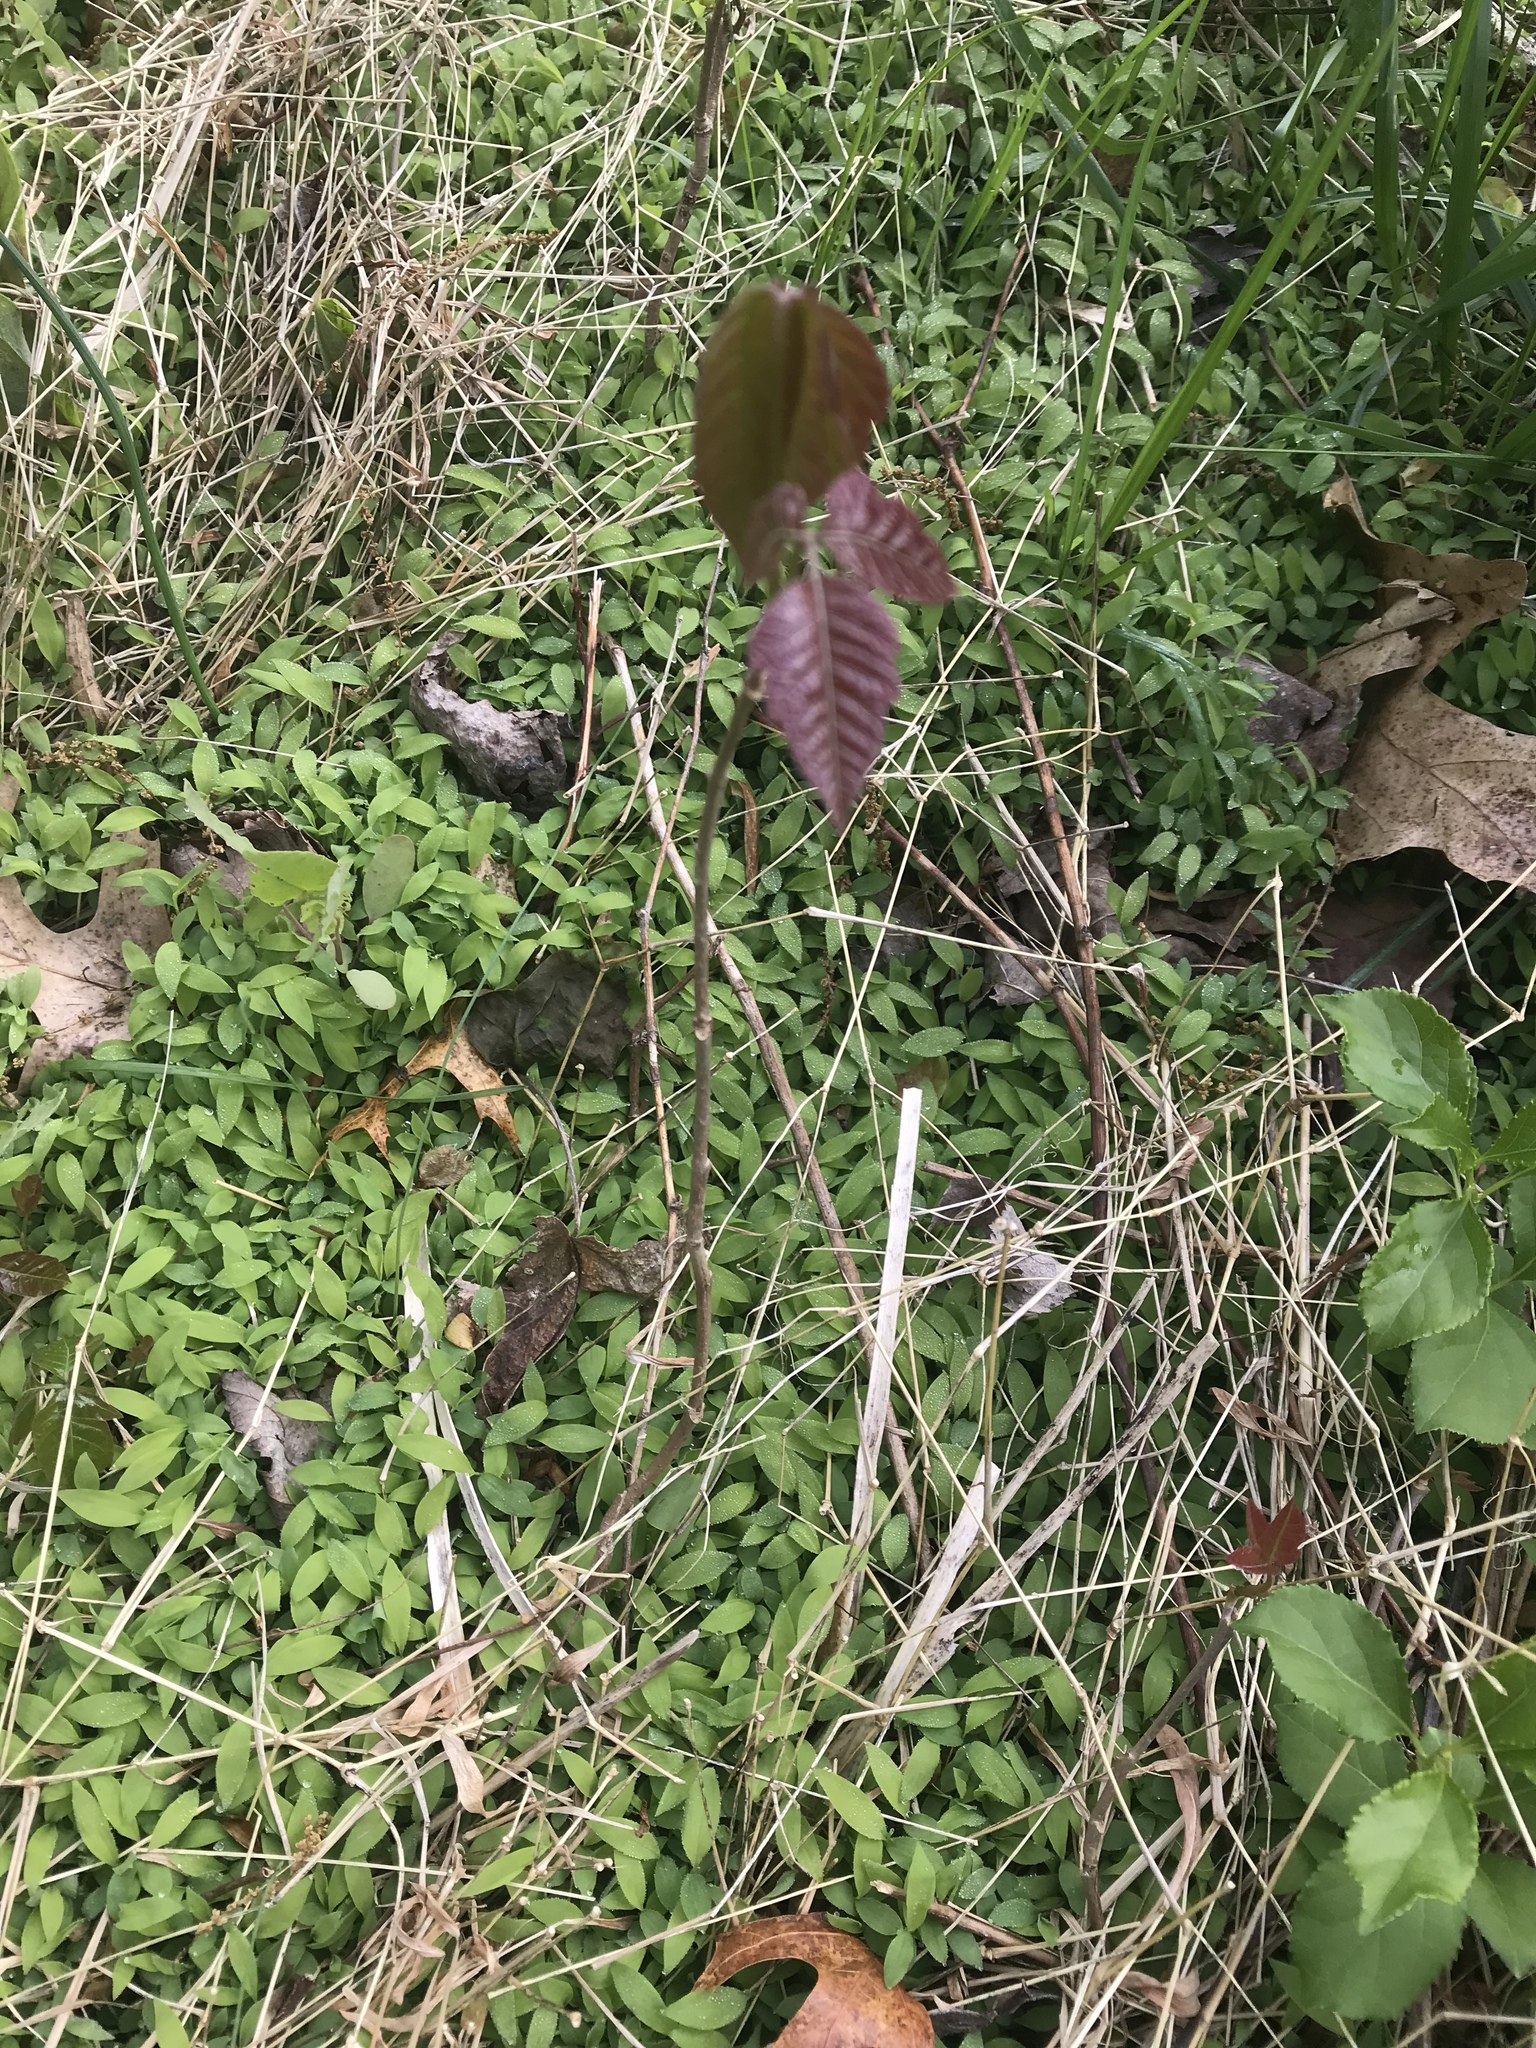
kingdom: Plantae
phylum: Tracheophyta
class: Magnoliopsida
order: Sapindales
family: Anacardiaceae
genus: Toxicodendron
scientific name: Toxicodendron radicans
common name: Poison ivy
